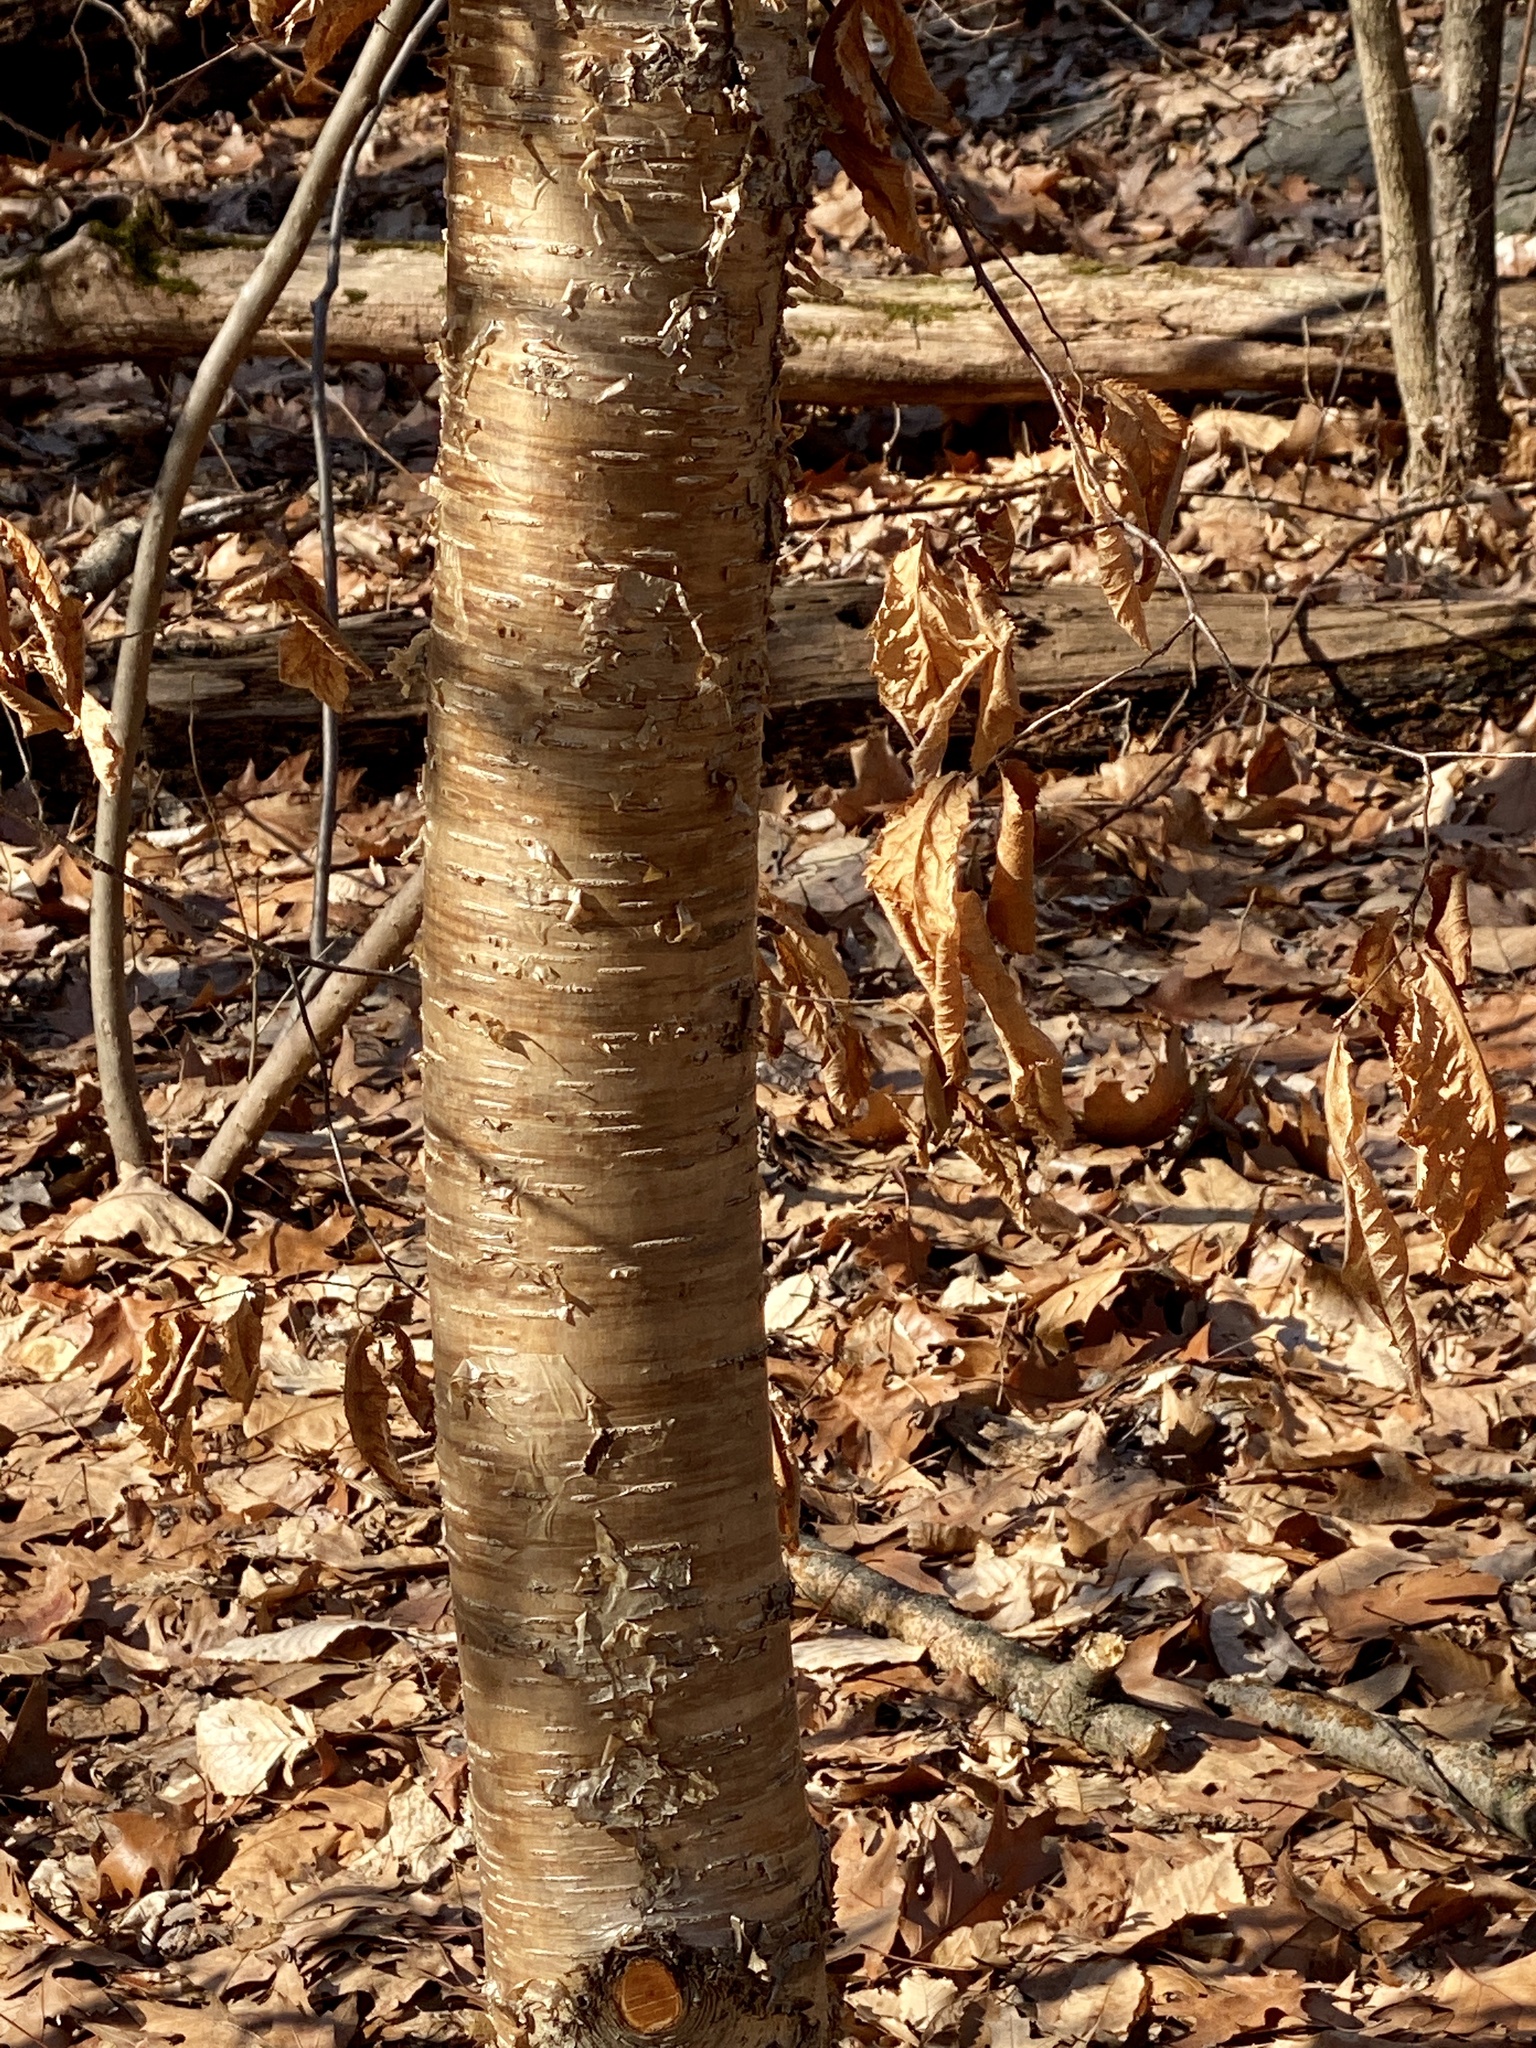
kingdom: Plantae
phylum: Tracheophyta
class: Magnoliopsida
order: Fagales
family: Betulaceae
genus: Betula
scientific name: Betula alleghaniensis
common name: Yellow birch
